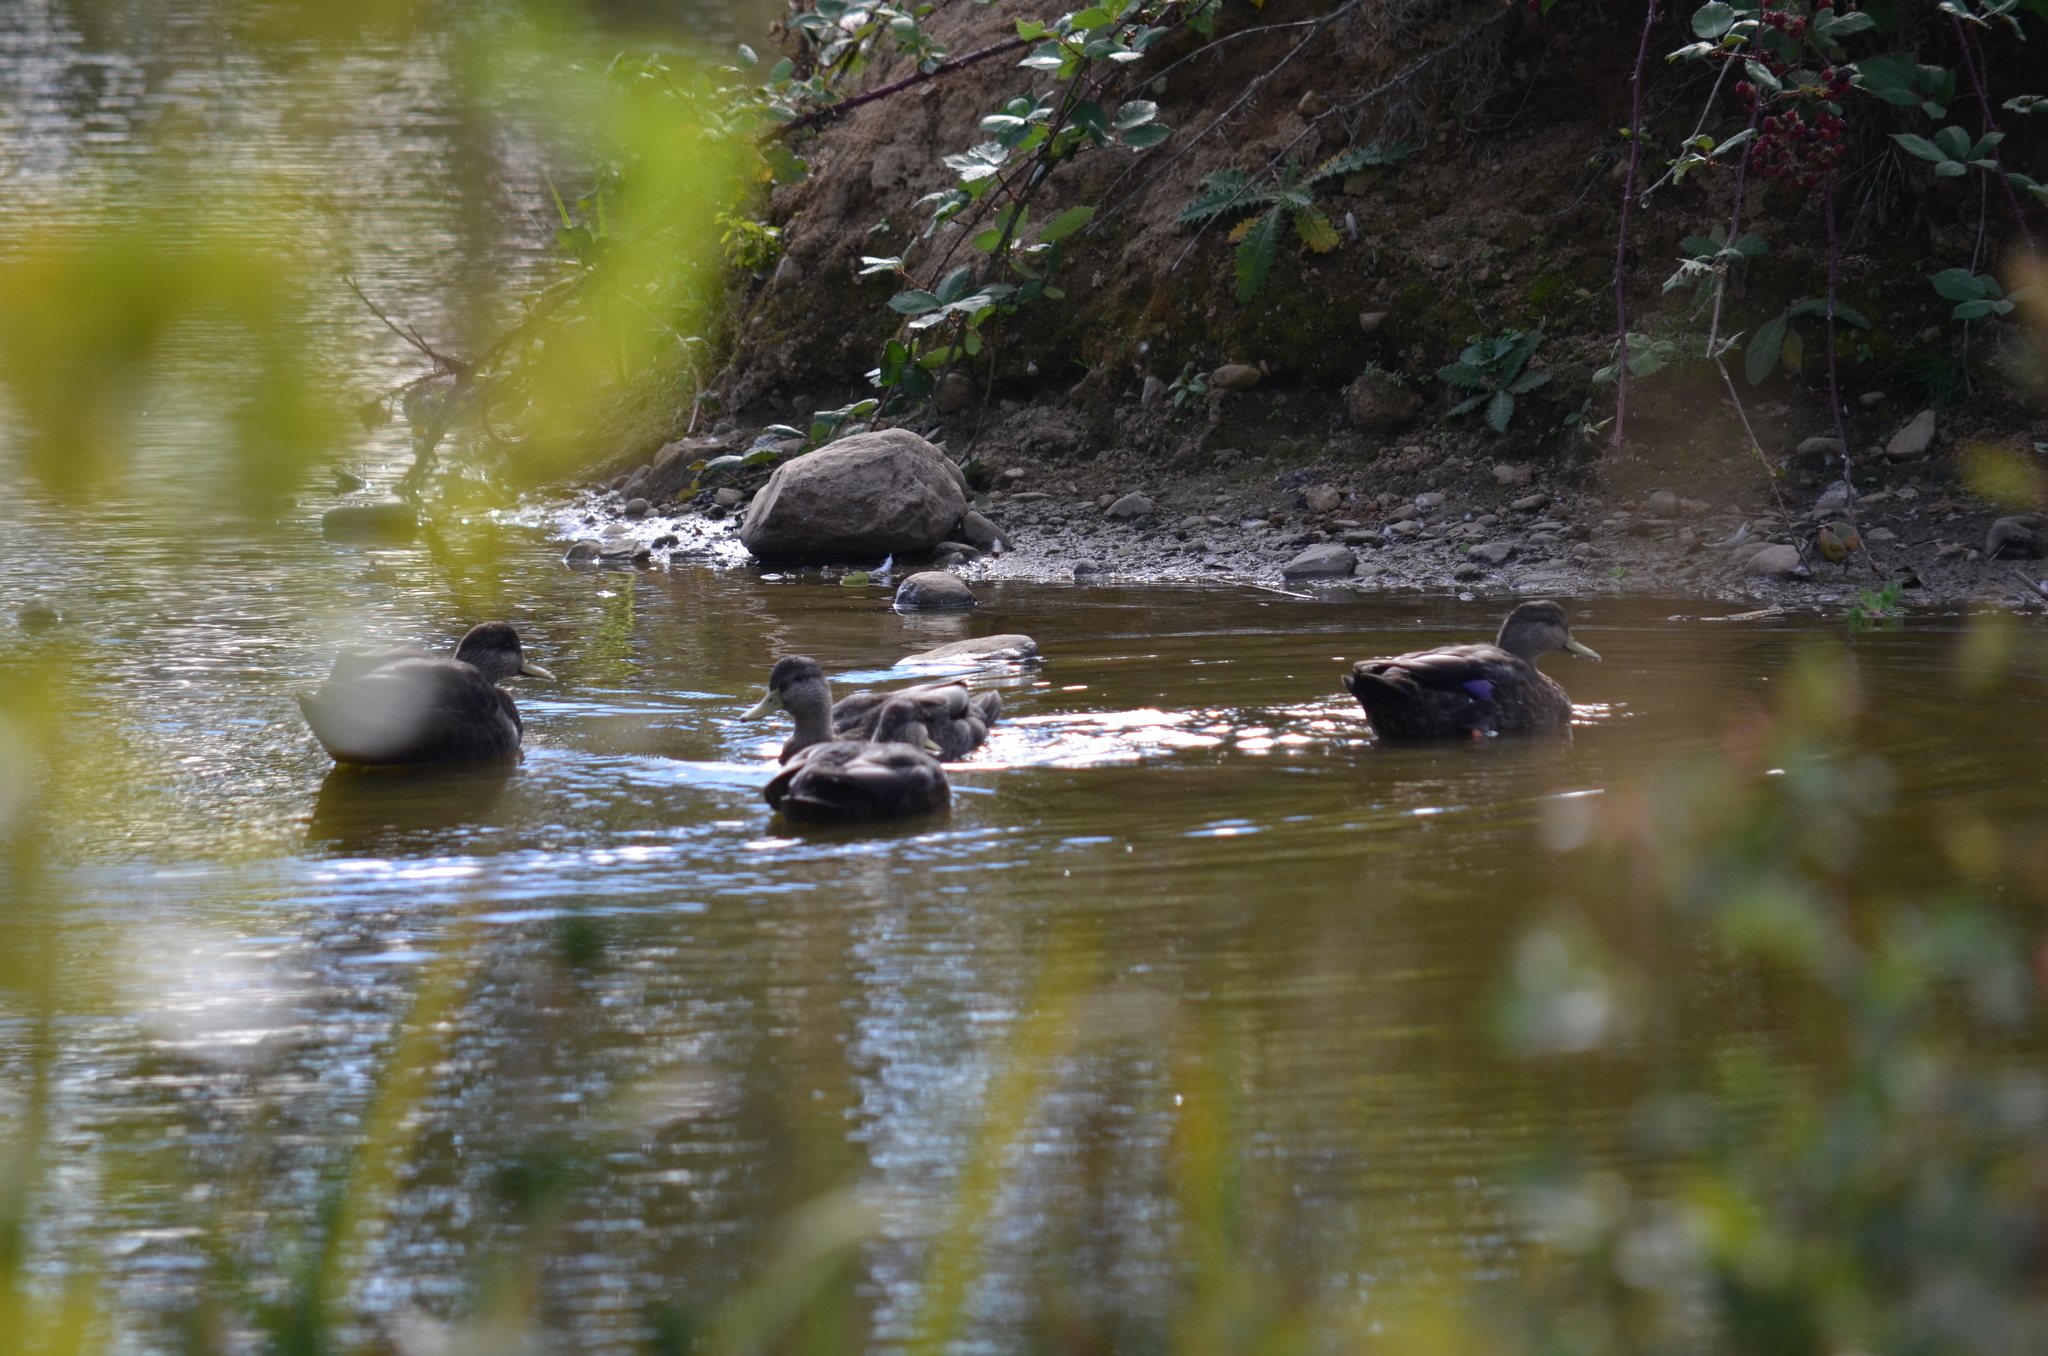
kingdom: Animalia
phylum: Chordata
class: Aves
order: Anseriformes
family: Anatidae
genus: Anas
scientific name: Anas rubripes
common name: American black duck
